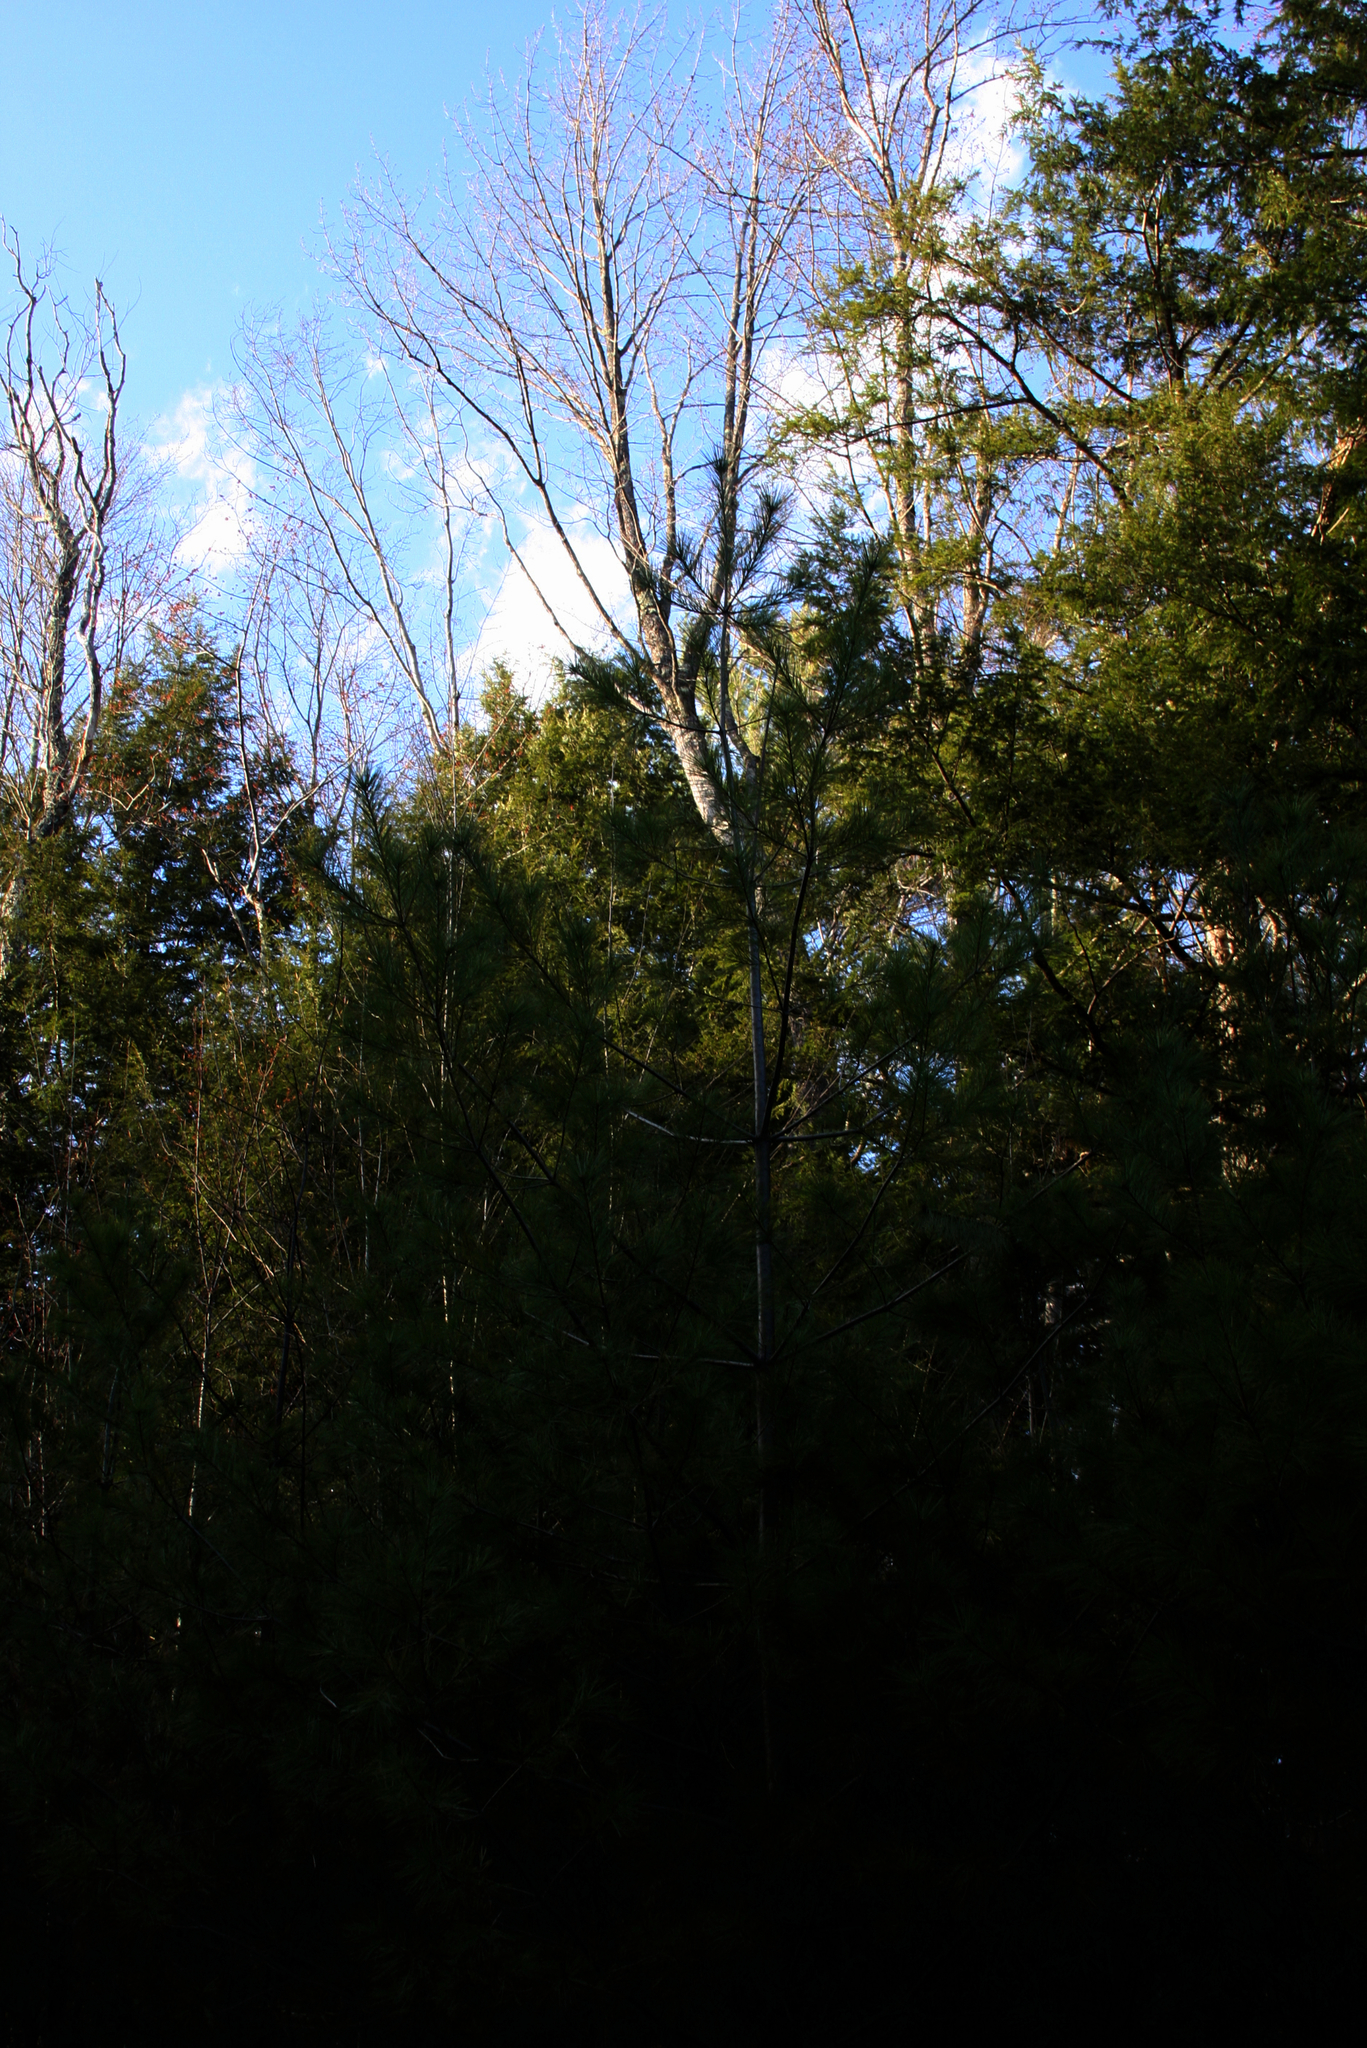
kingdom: Plantae
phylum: Tracheophyta
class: Pinopsida
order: Pinales
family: Pinaceae
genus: Pinus
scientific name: Pinus strobus
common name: Weymouth pine
